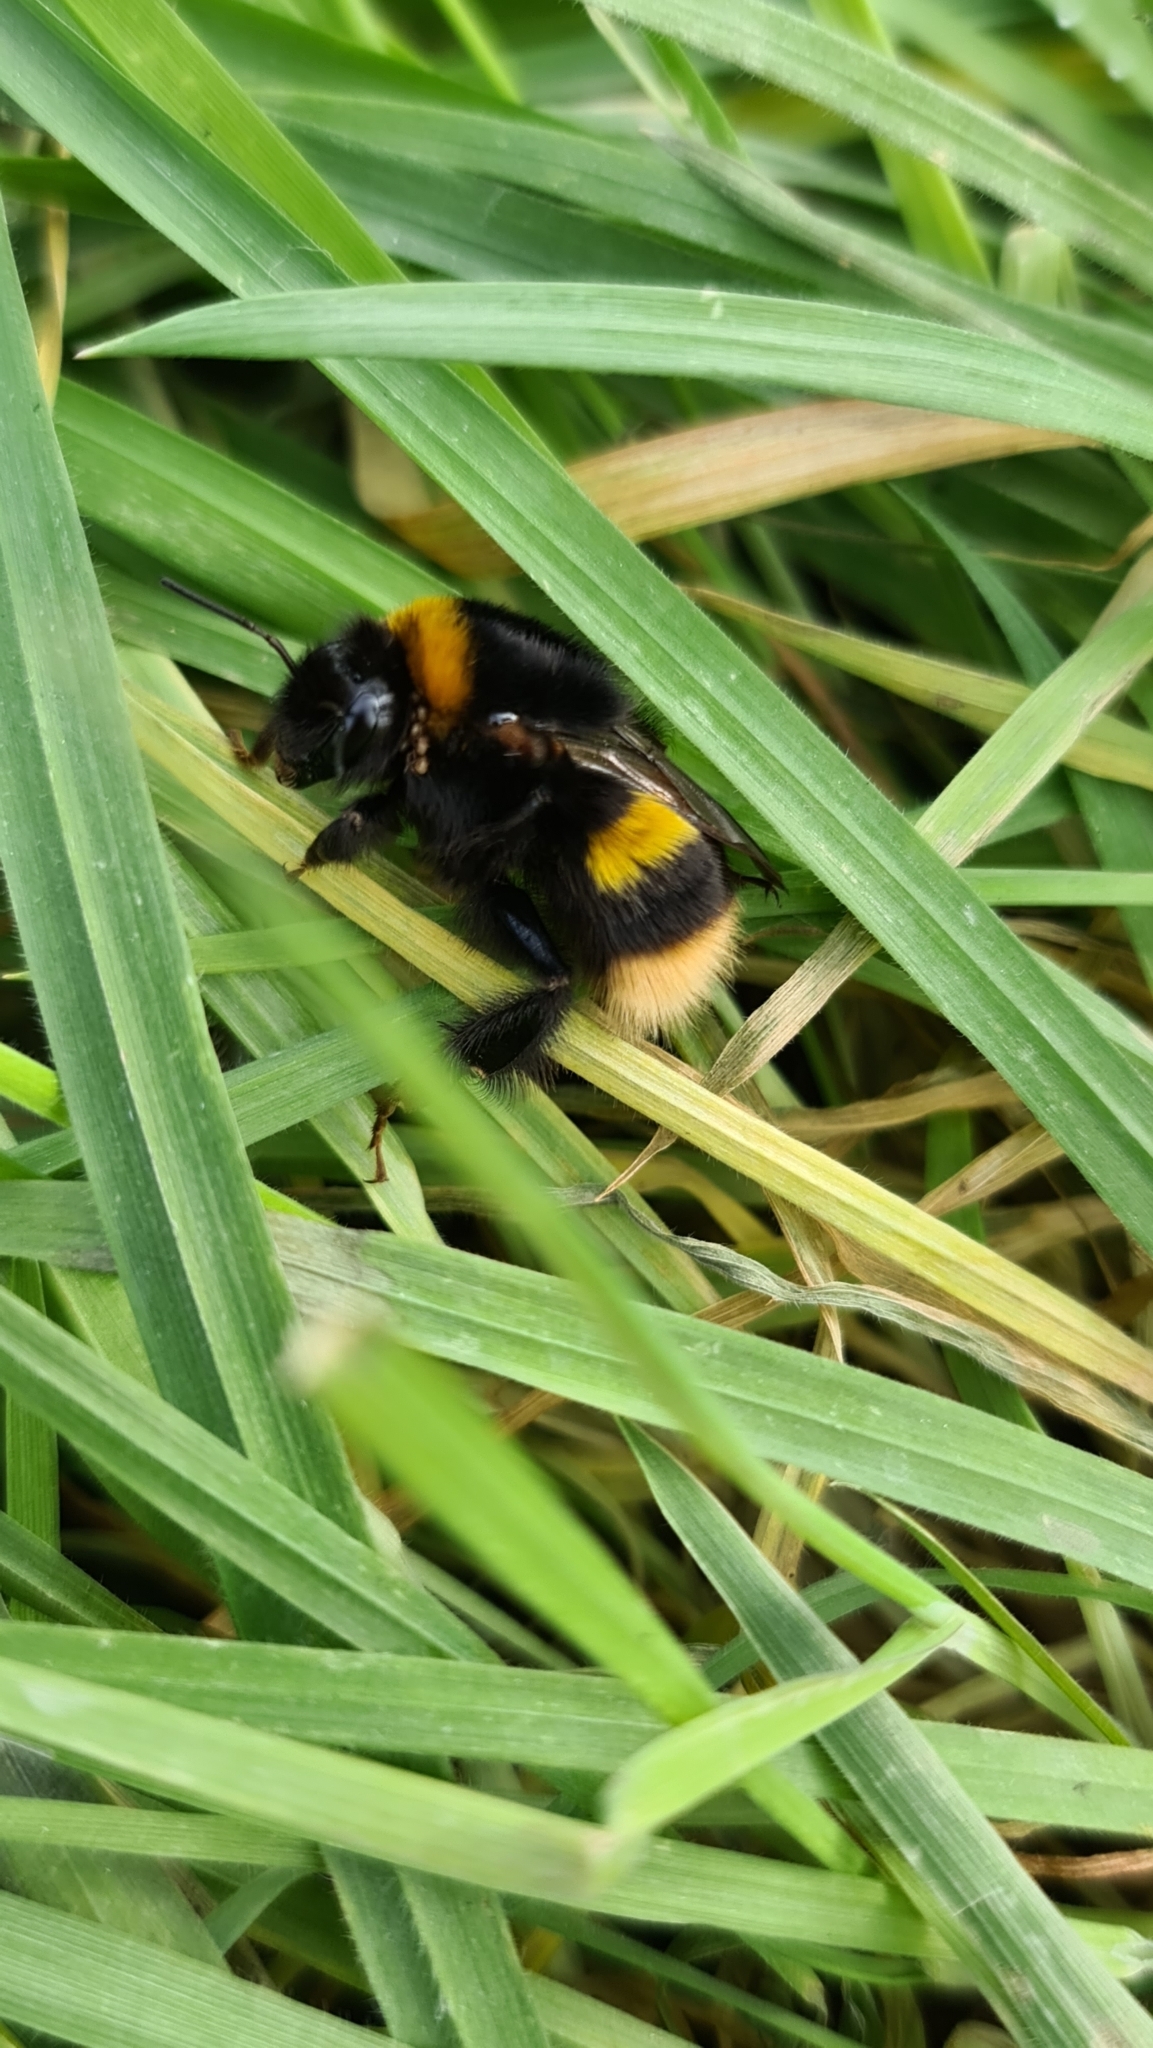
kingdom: Animalia
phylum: Arthropoda
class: Insecta
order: Hymenoptera
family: Apidae
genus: Bombus
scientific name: Bombus terrestris
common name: Buff-tailed bumblebee
